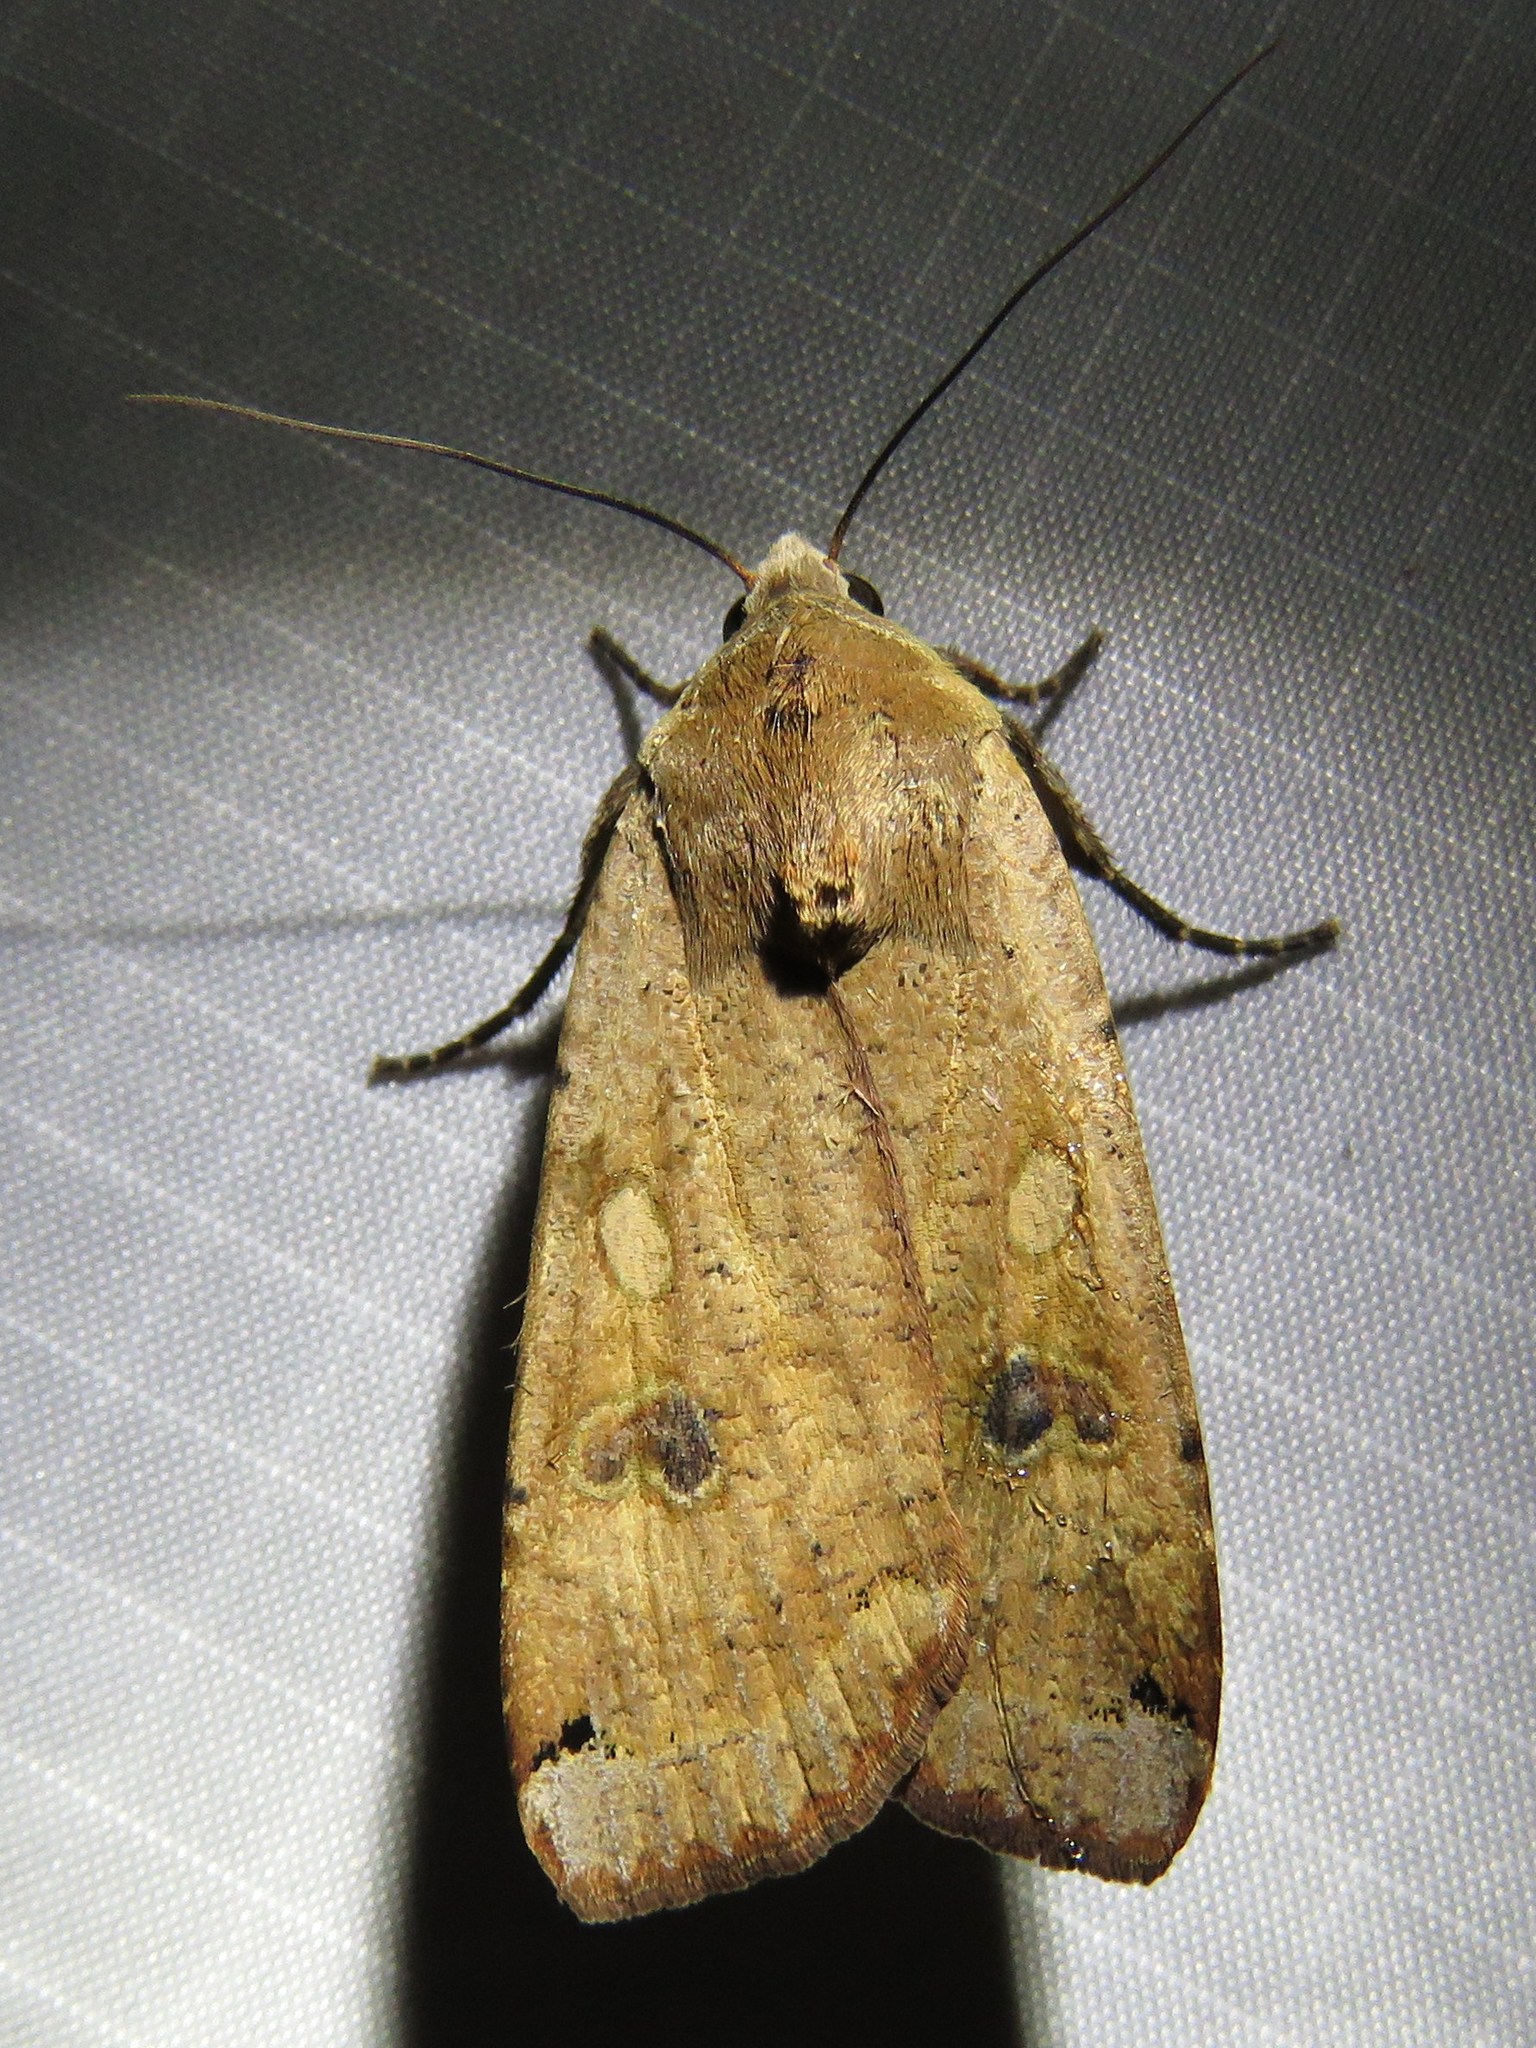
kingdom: Animalia
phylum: Arthropoda
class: Insecta
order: Lepidoptera
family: Noctuidae
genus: Noctua
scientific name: Noctua pronuba
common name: Large yellow underwing
